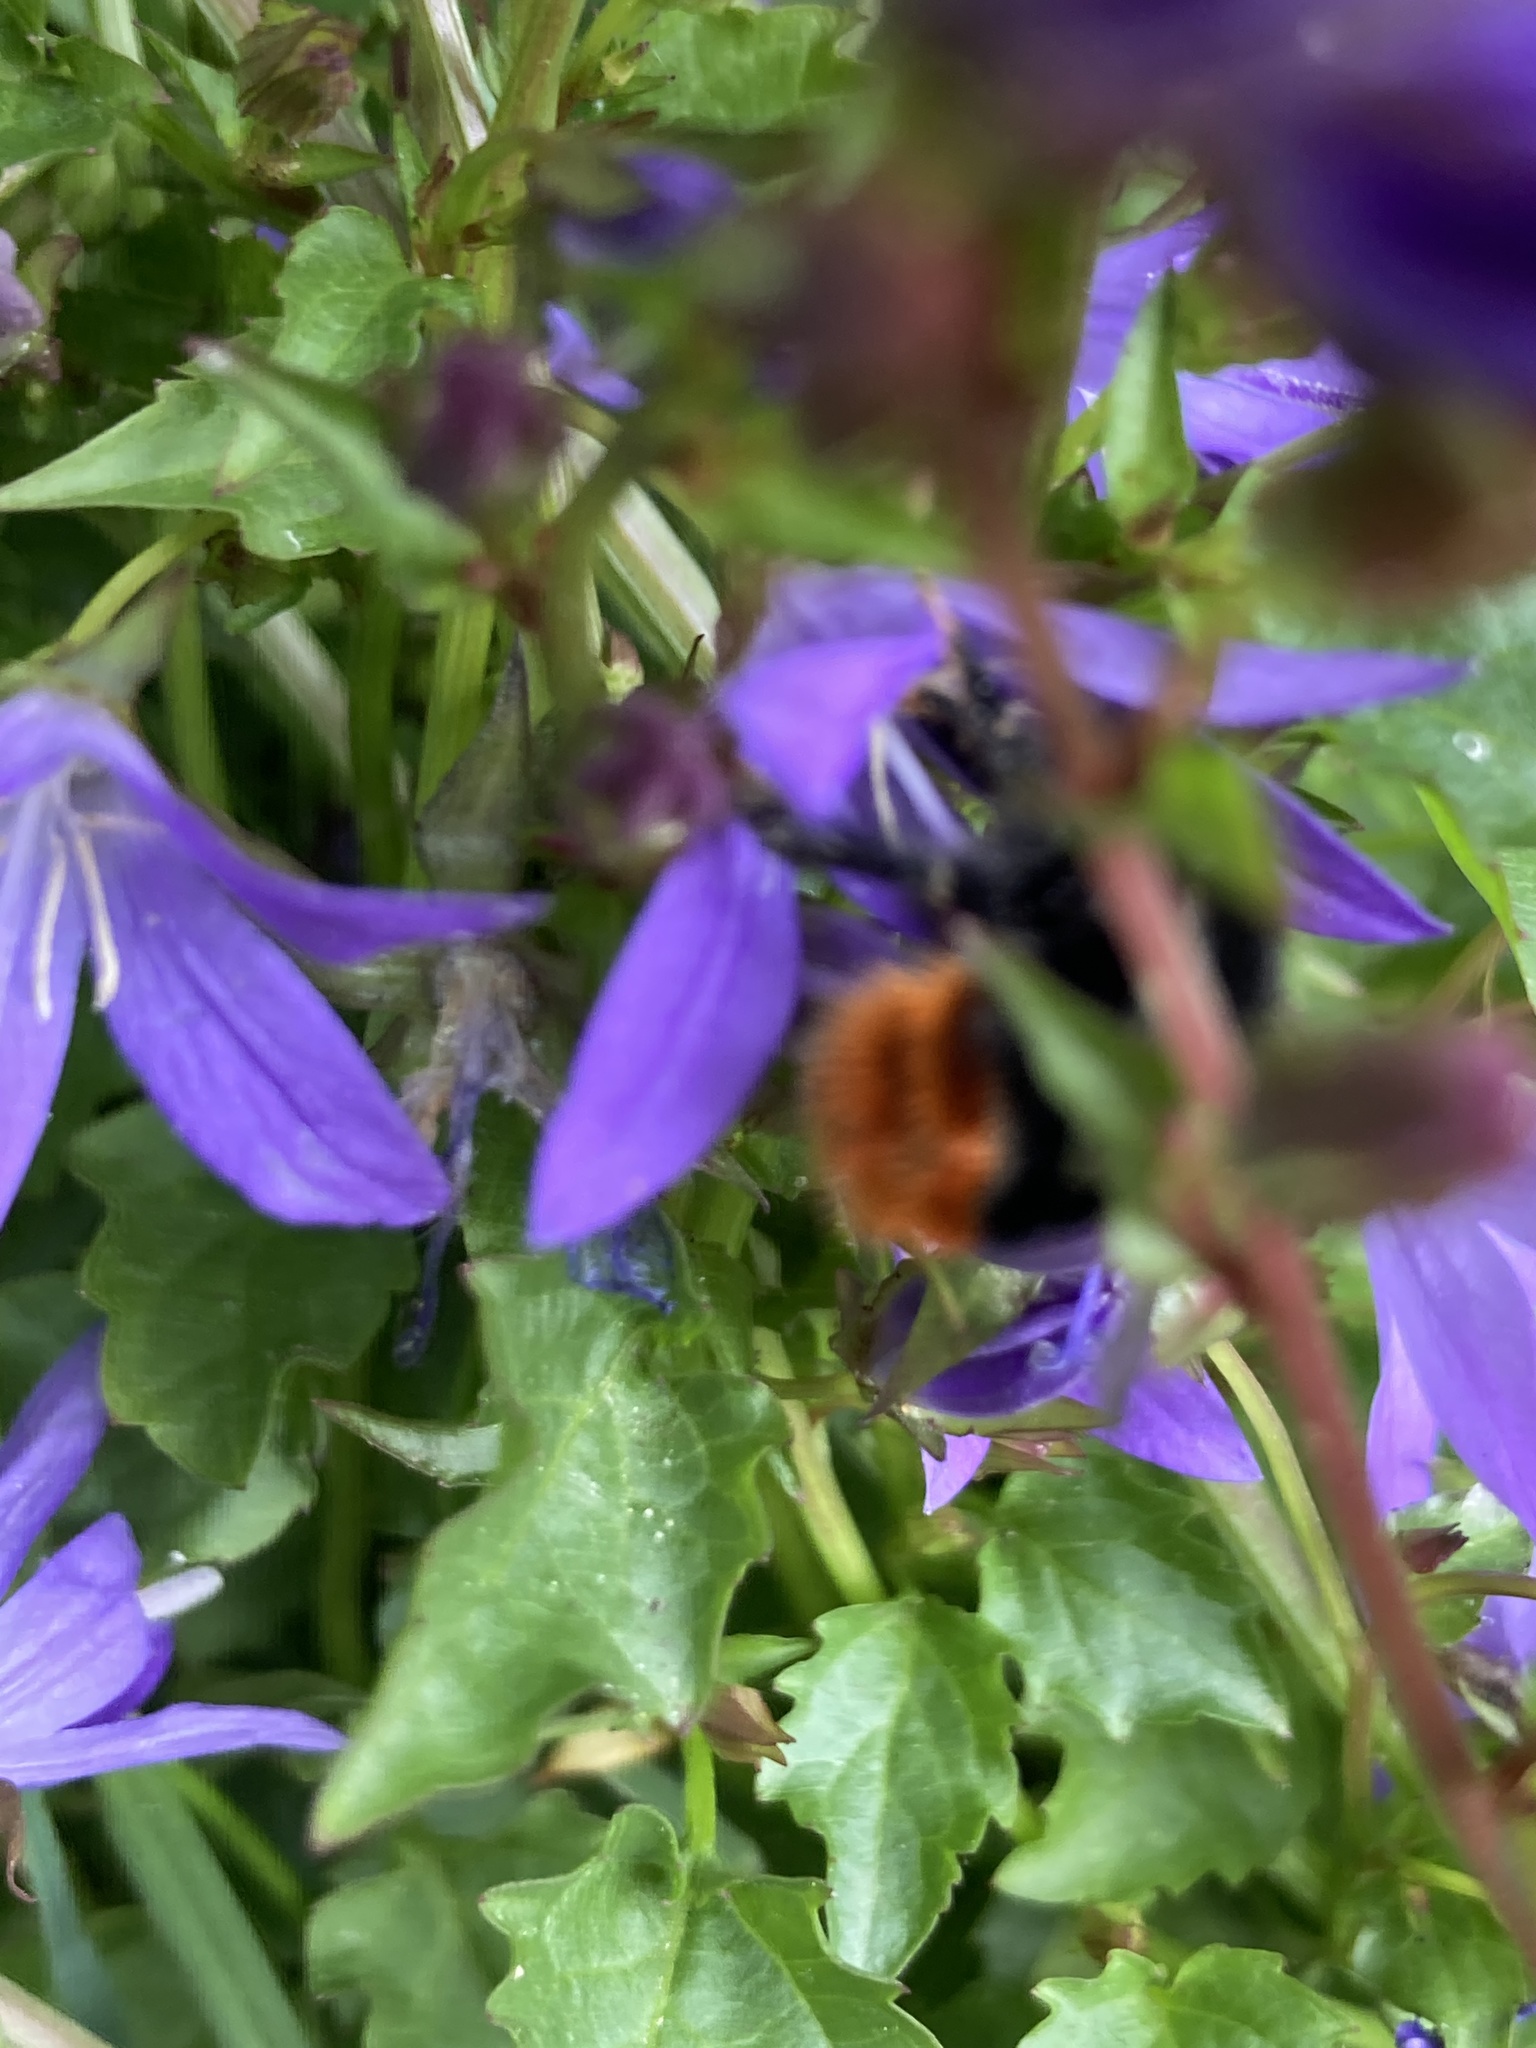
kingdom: Animalia
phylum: Arthropoda
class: Insecta
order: Hymenoptera
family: Apidae
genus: Bombus
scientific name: Bombus lapidarius
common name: Large red-tailed humble-bee
